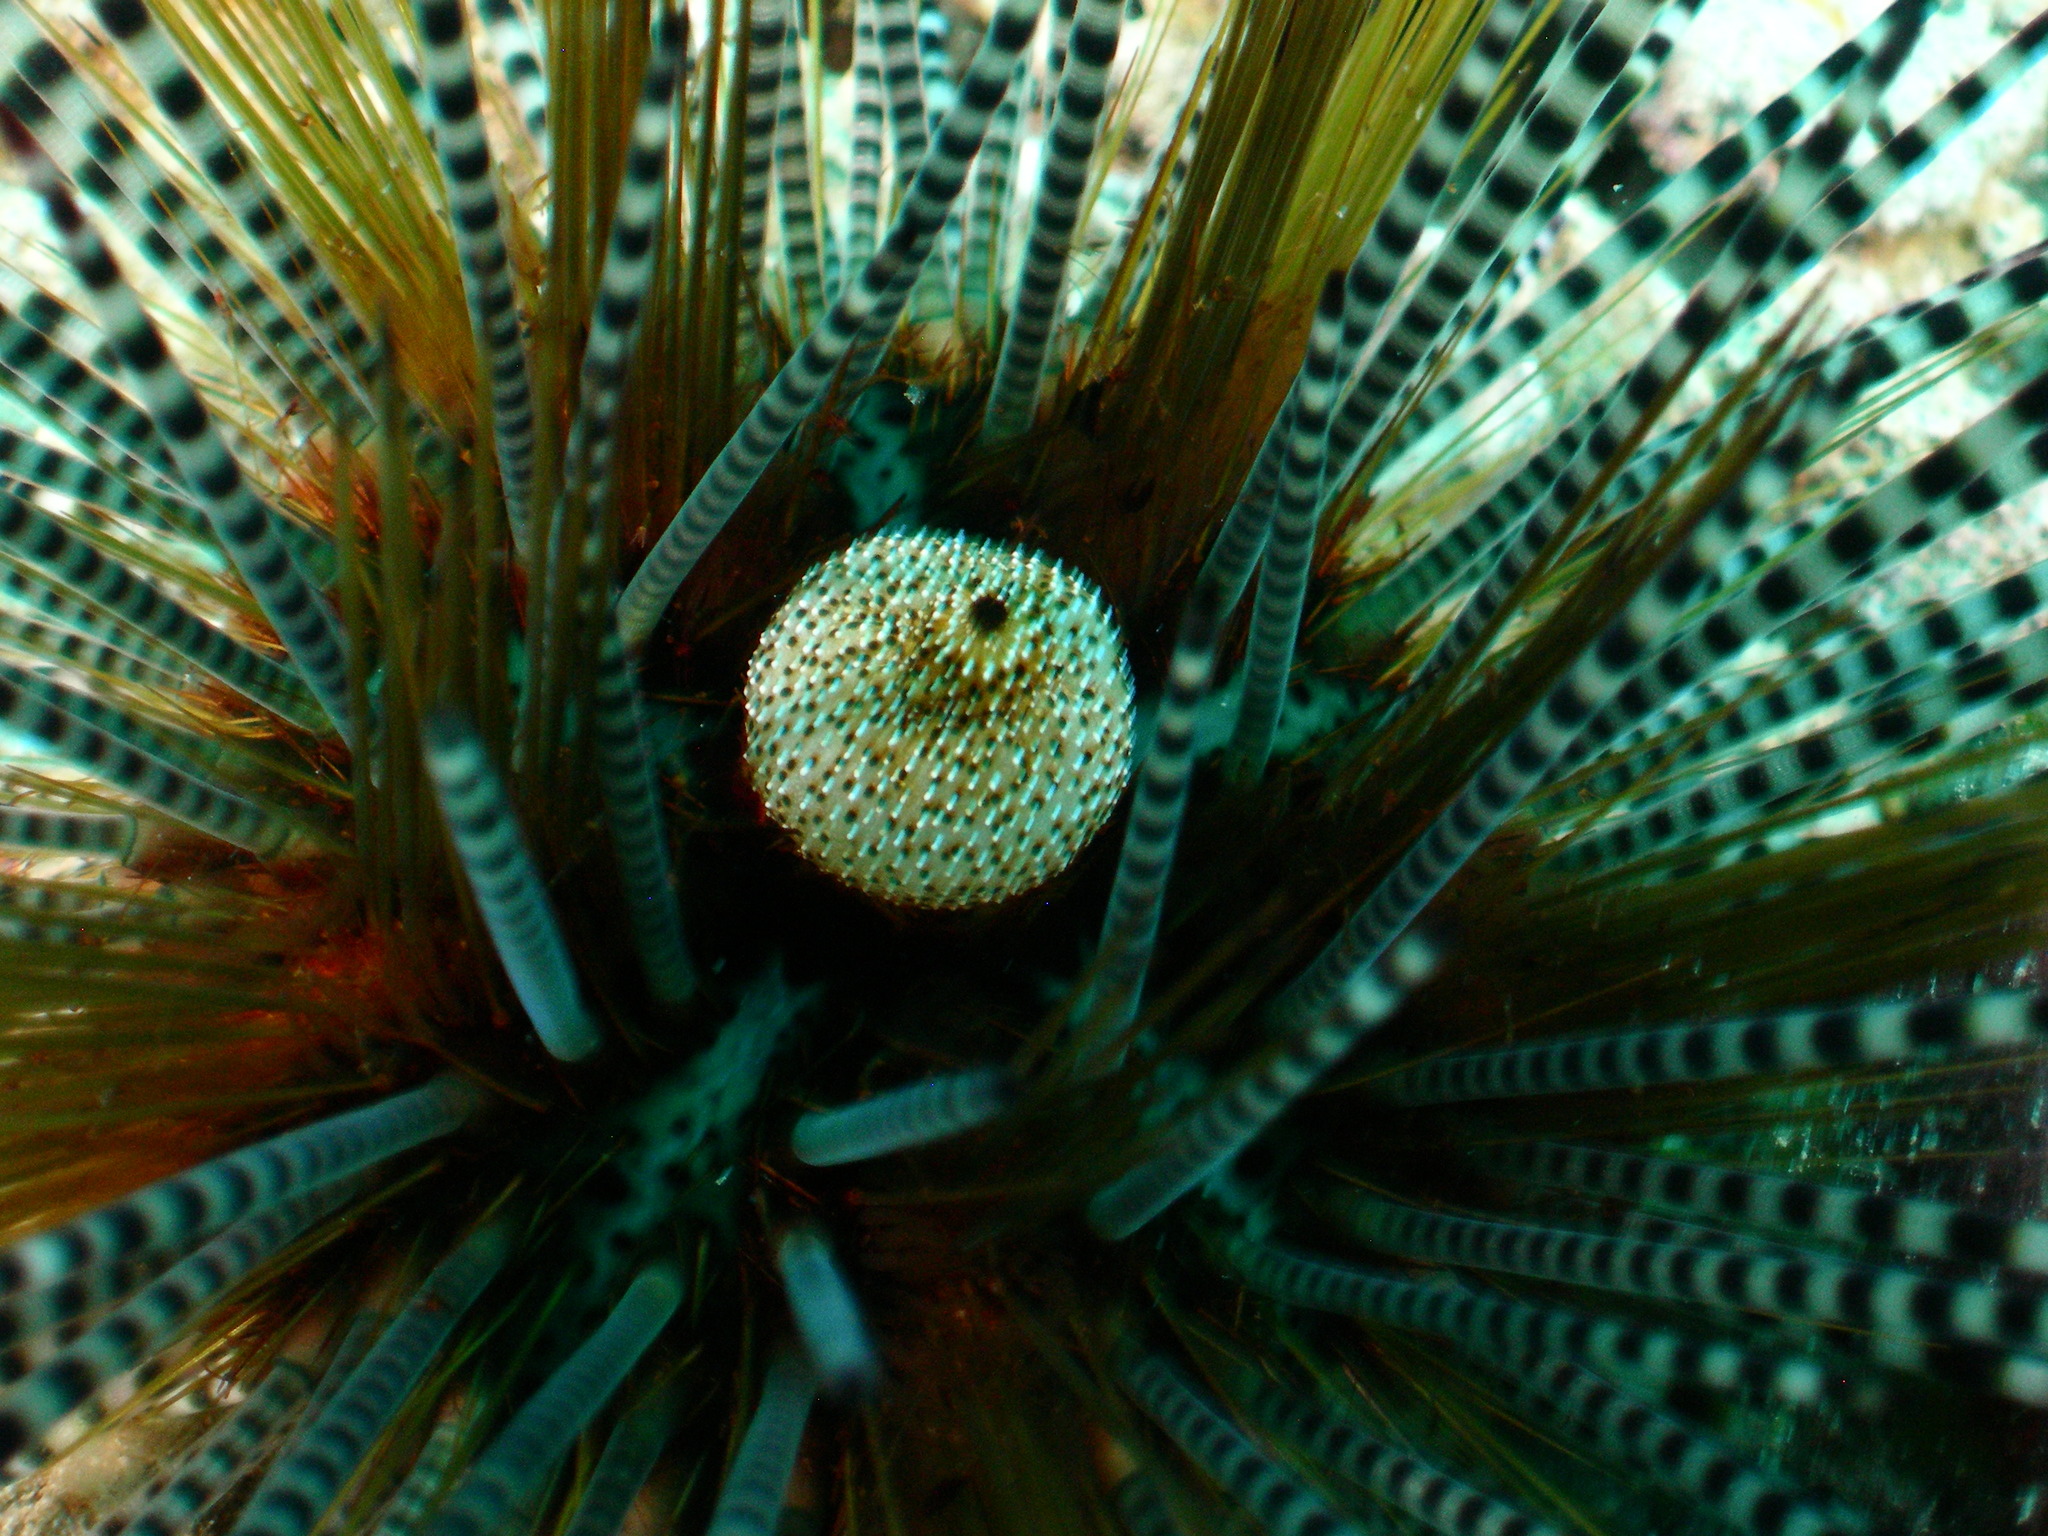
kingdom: Animalia
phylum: Echinodermata
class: Echinoidea
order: Diadematoida
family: Diadematidae
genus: Echinothrix
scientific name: Echinothrix calamaris
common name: Banded sea urchin
